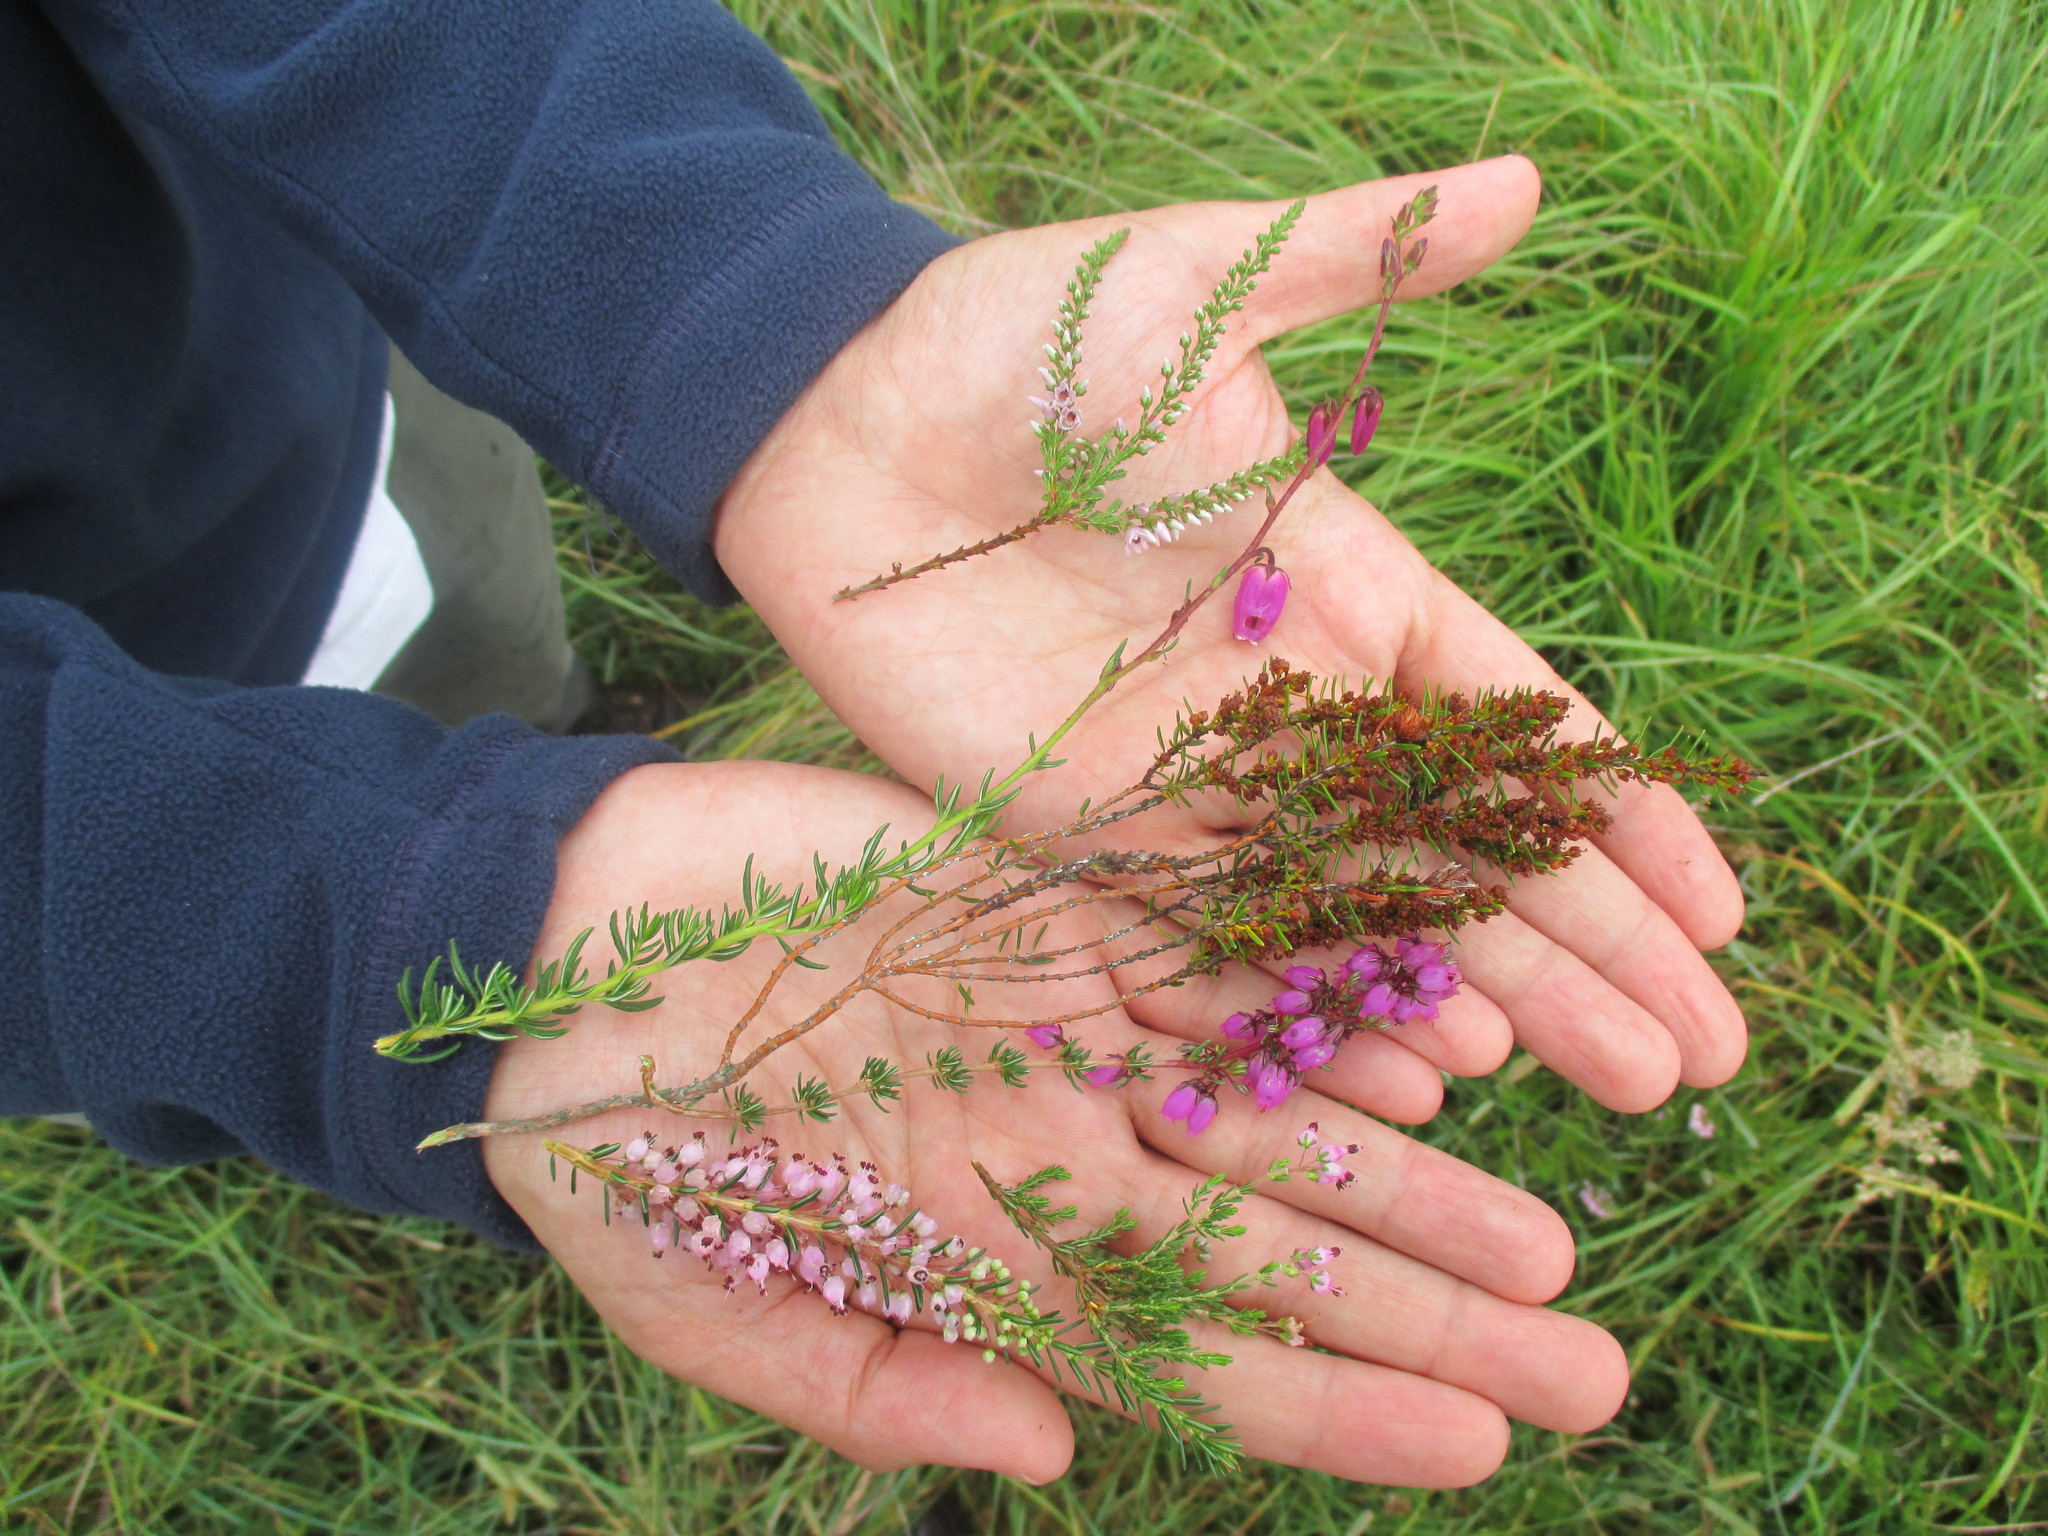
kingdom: Plantae
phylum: Tracheophyta
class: Magnoliopsida
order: Ericales
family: Ericaceae
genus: Erica
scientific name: Erica vagans
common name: Cornish heath
